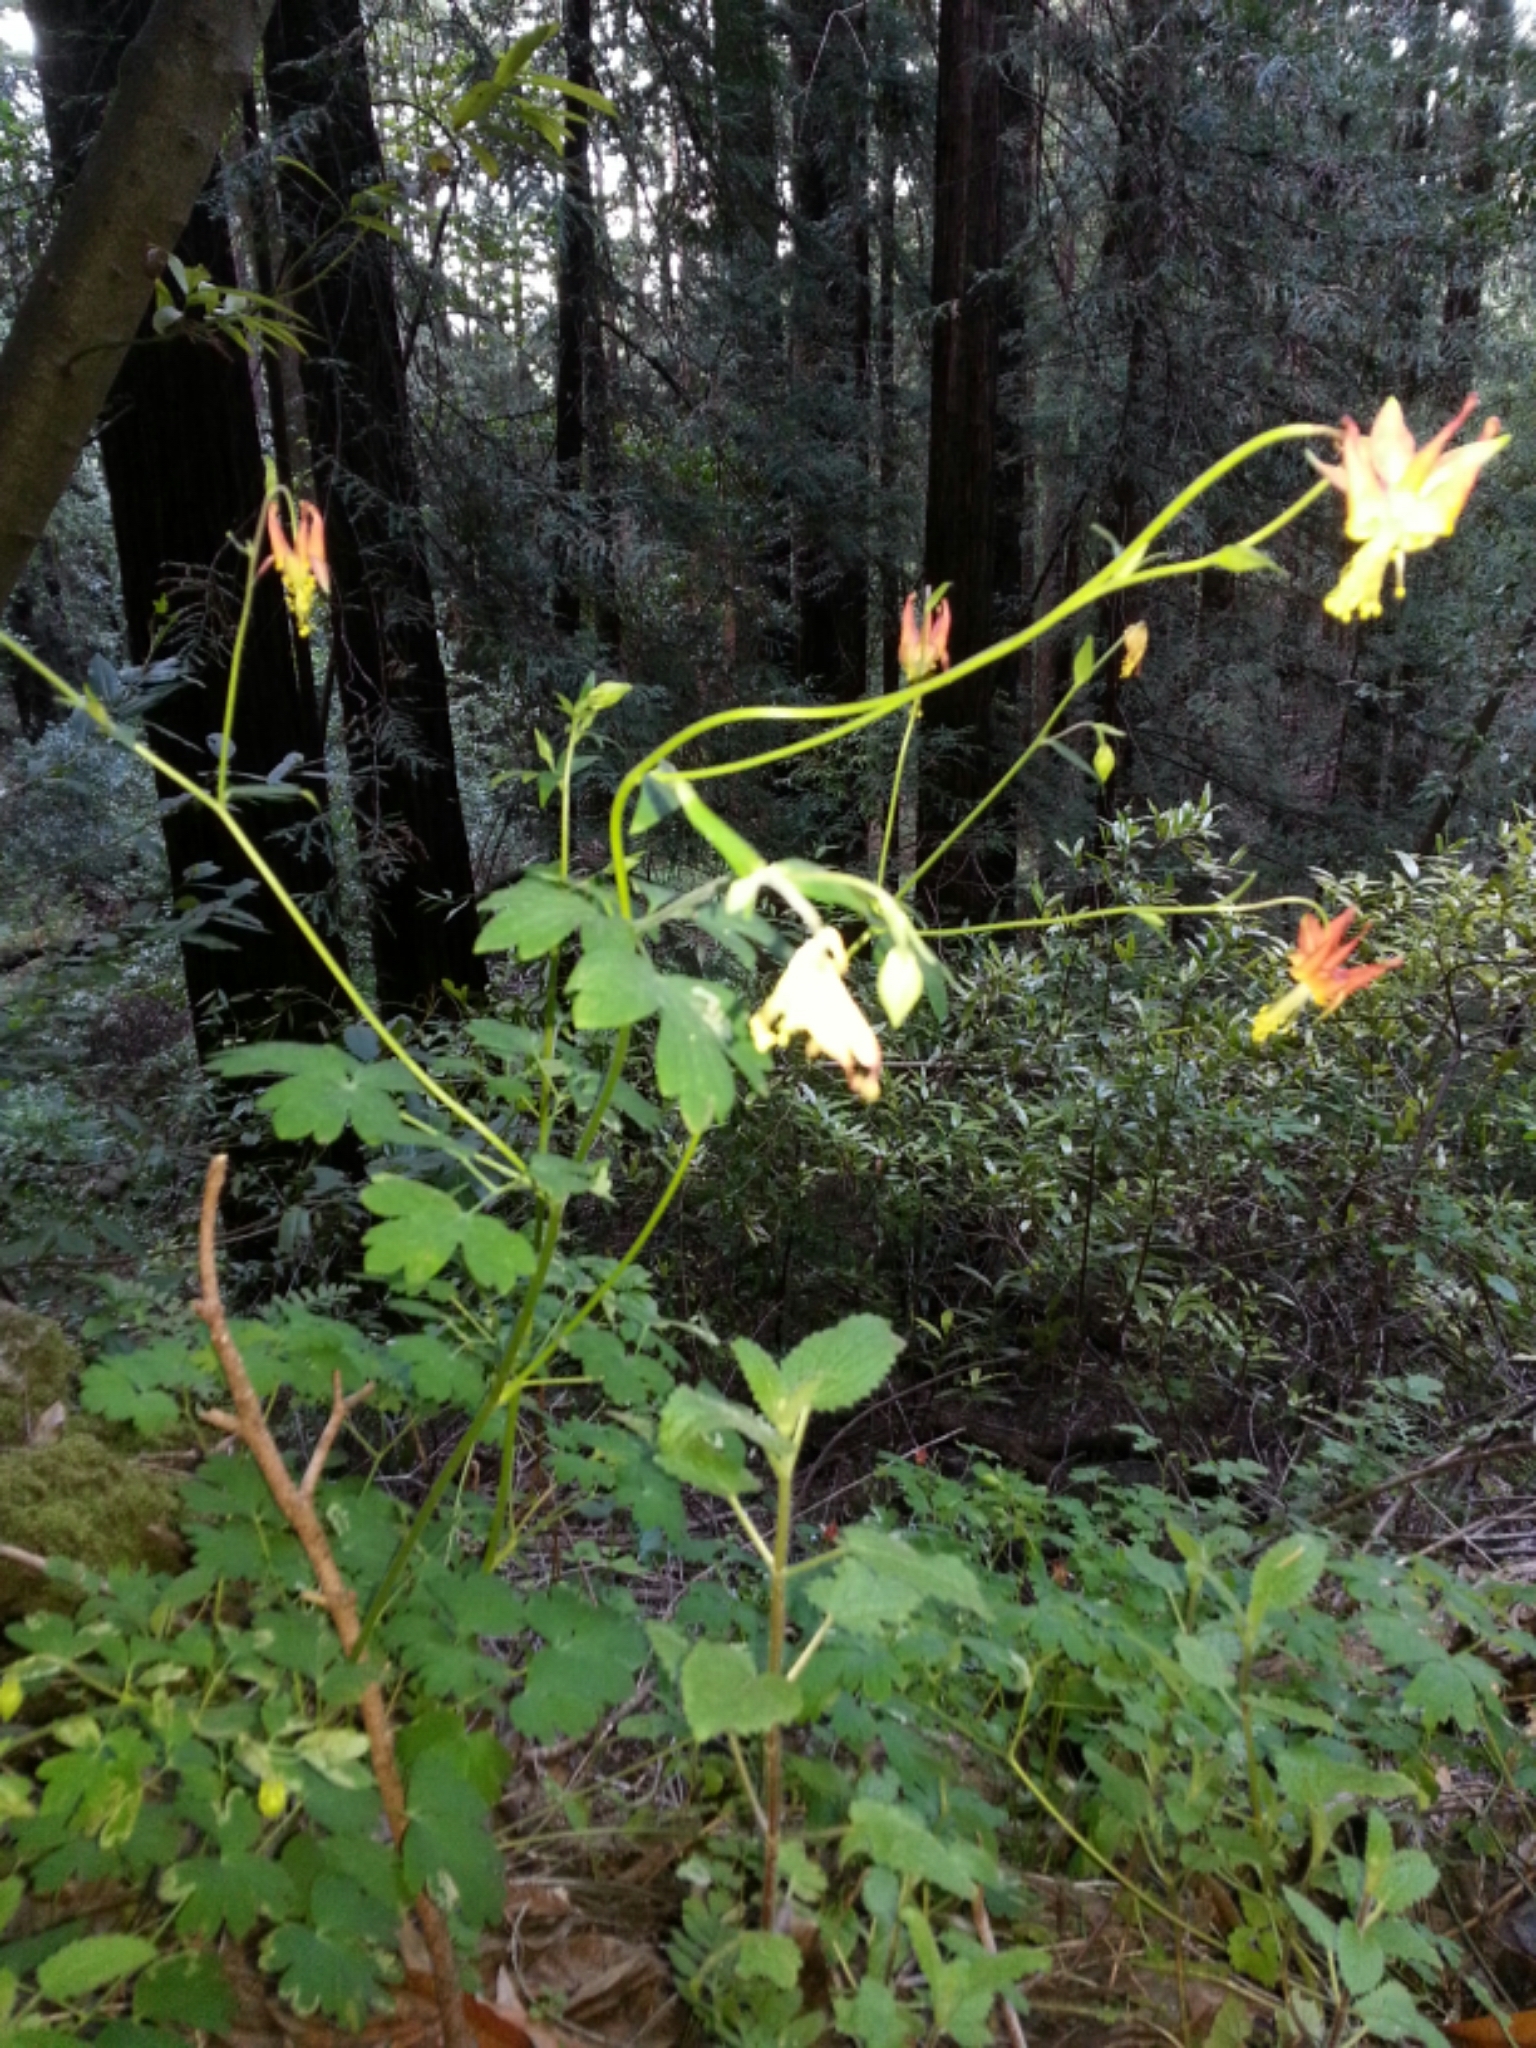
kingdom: Plantae
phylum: Tracheophyta
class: Magnoliopsida
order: Ranunculales
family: Ranunculaceae
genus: Aquilegia
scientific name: Aquilegia formosa
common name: Sitka columbine
